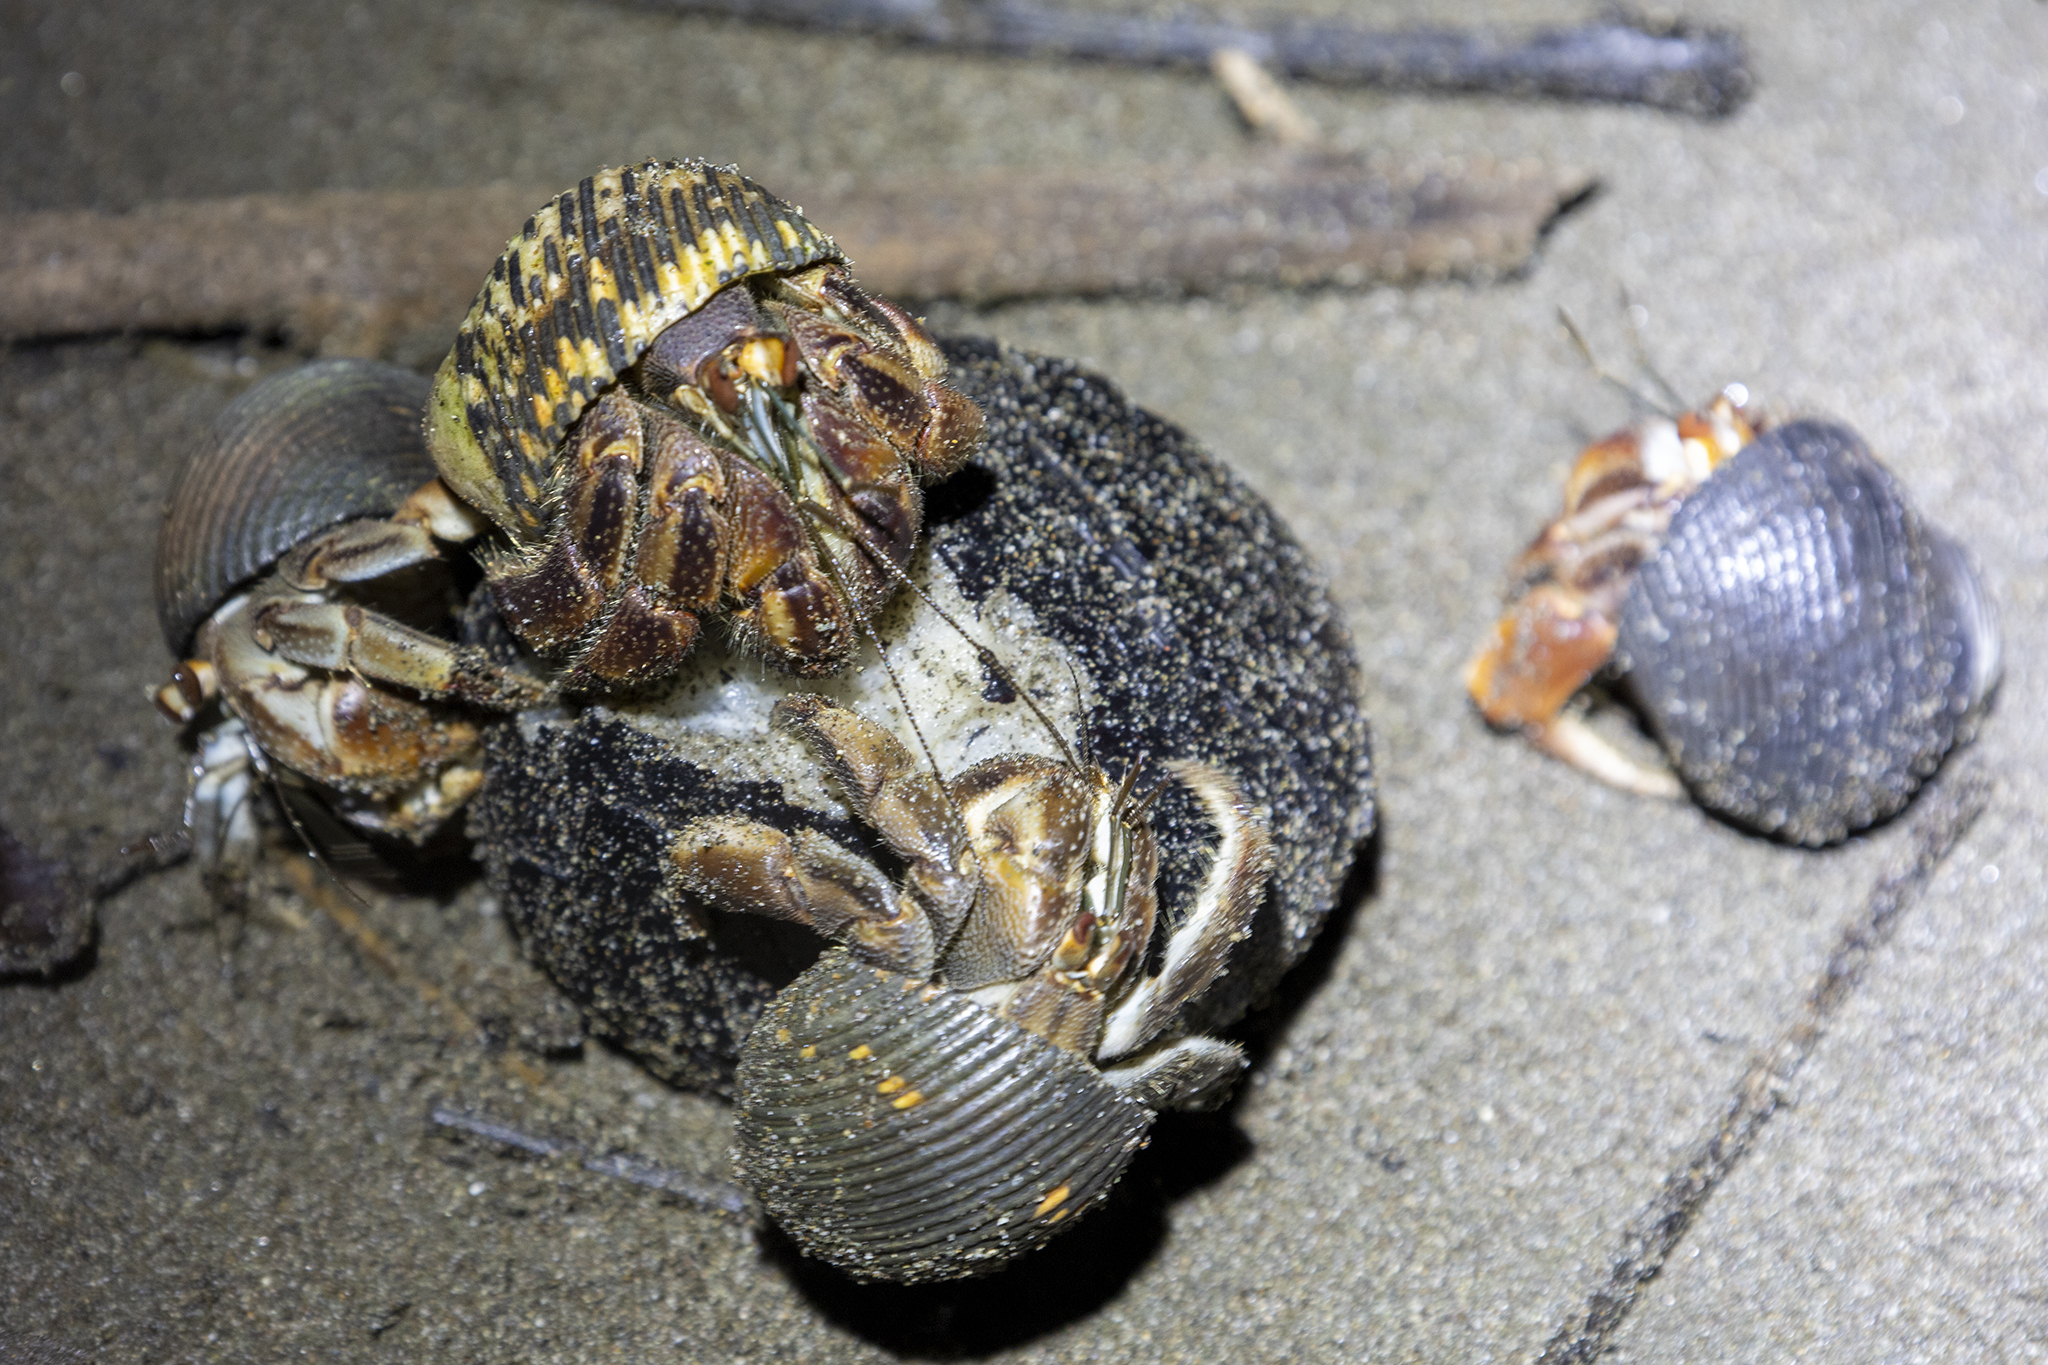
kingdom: Animalia
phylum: Arthropoda
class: Malacostraca
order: Decapoda
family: Coenobitidae
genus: Coenobita
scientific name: Coenobita compressus
